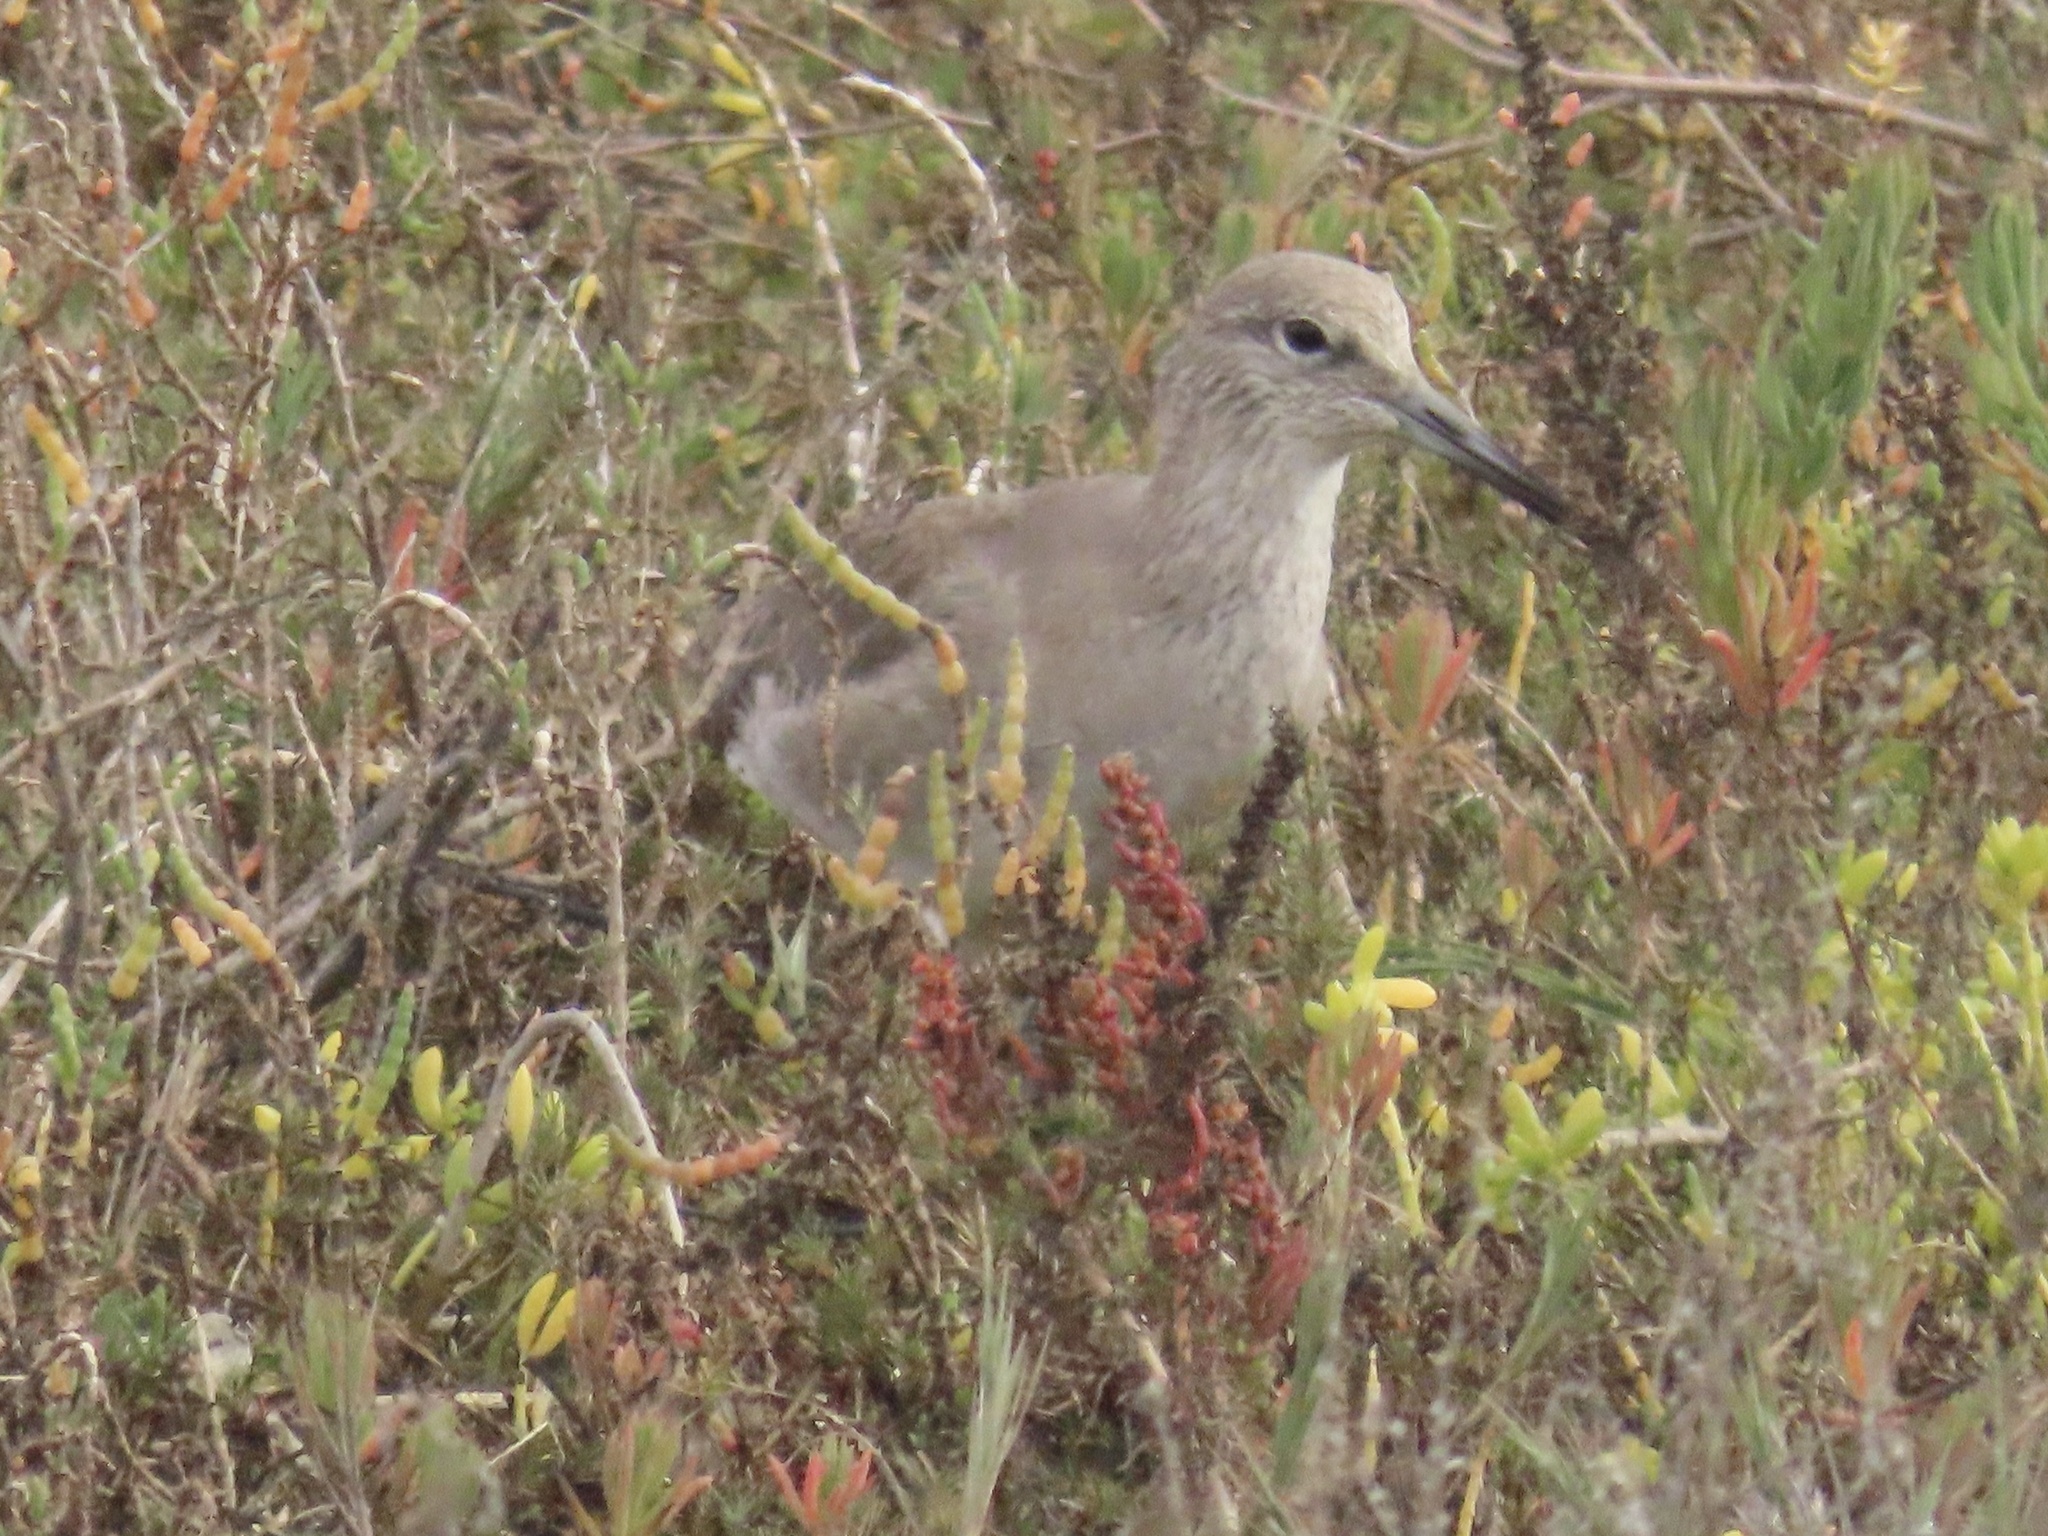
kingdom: Animalia
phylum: Chordata
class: Aves
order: Charadriiformes
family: Scolopacidae
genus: Tringa
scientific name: Tringa semipalmata
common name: Willet
